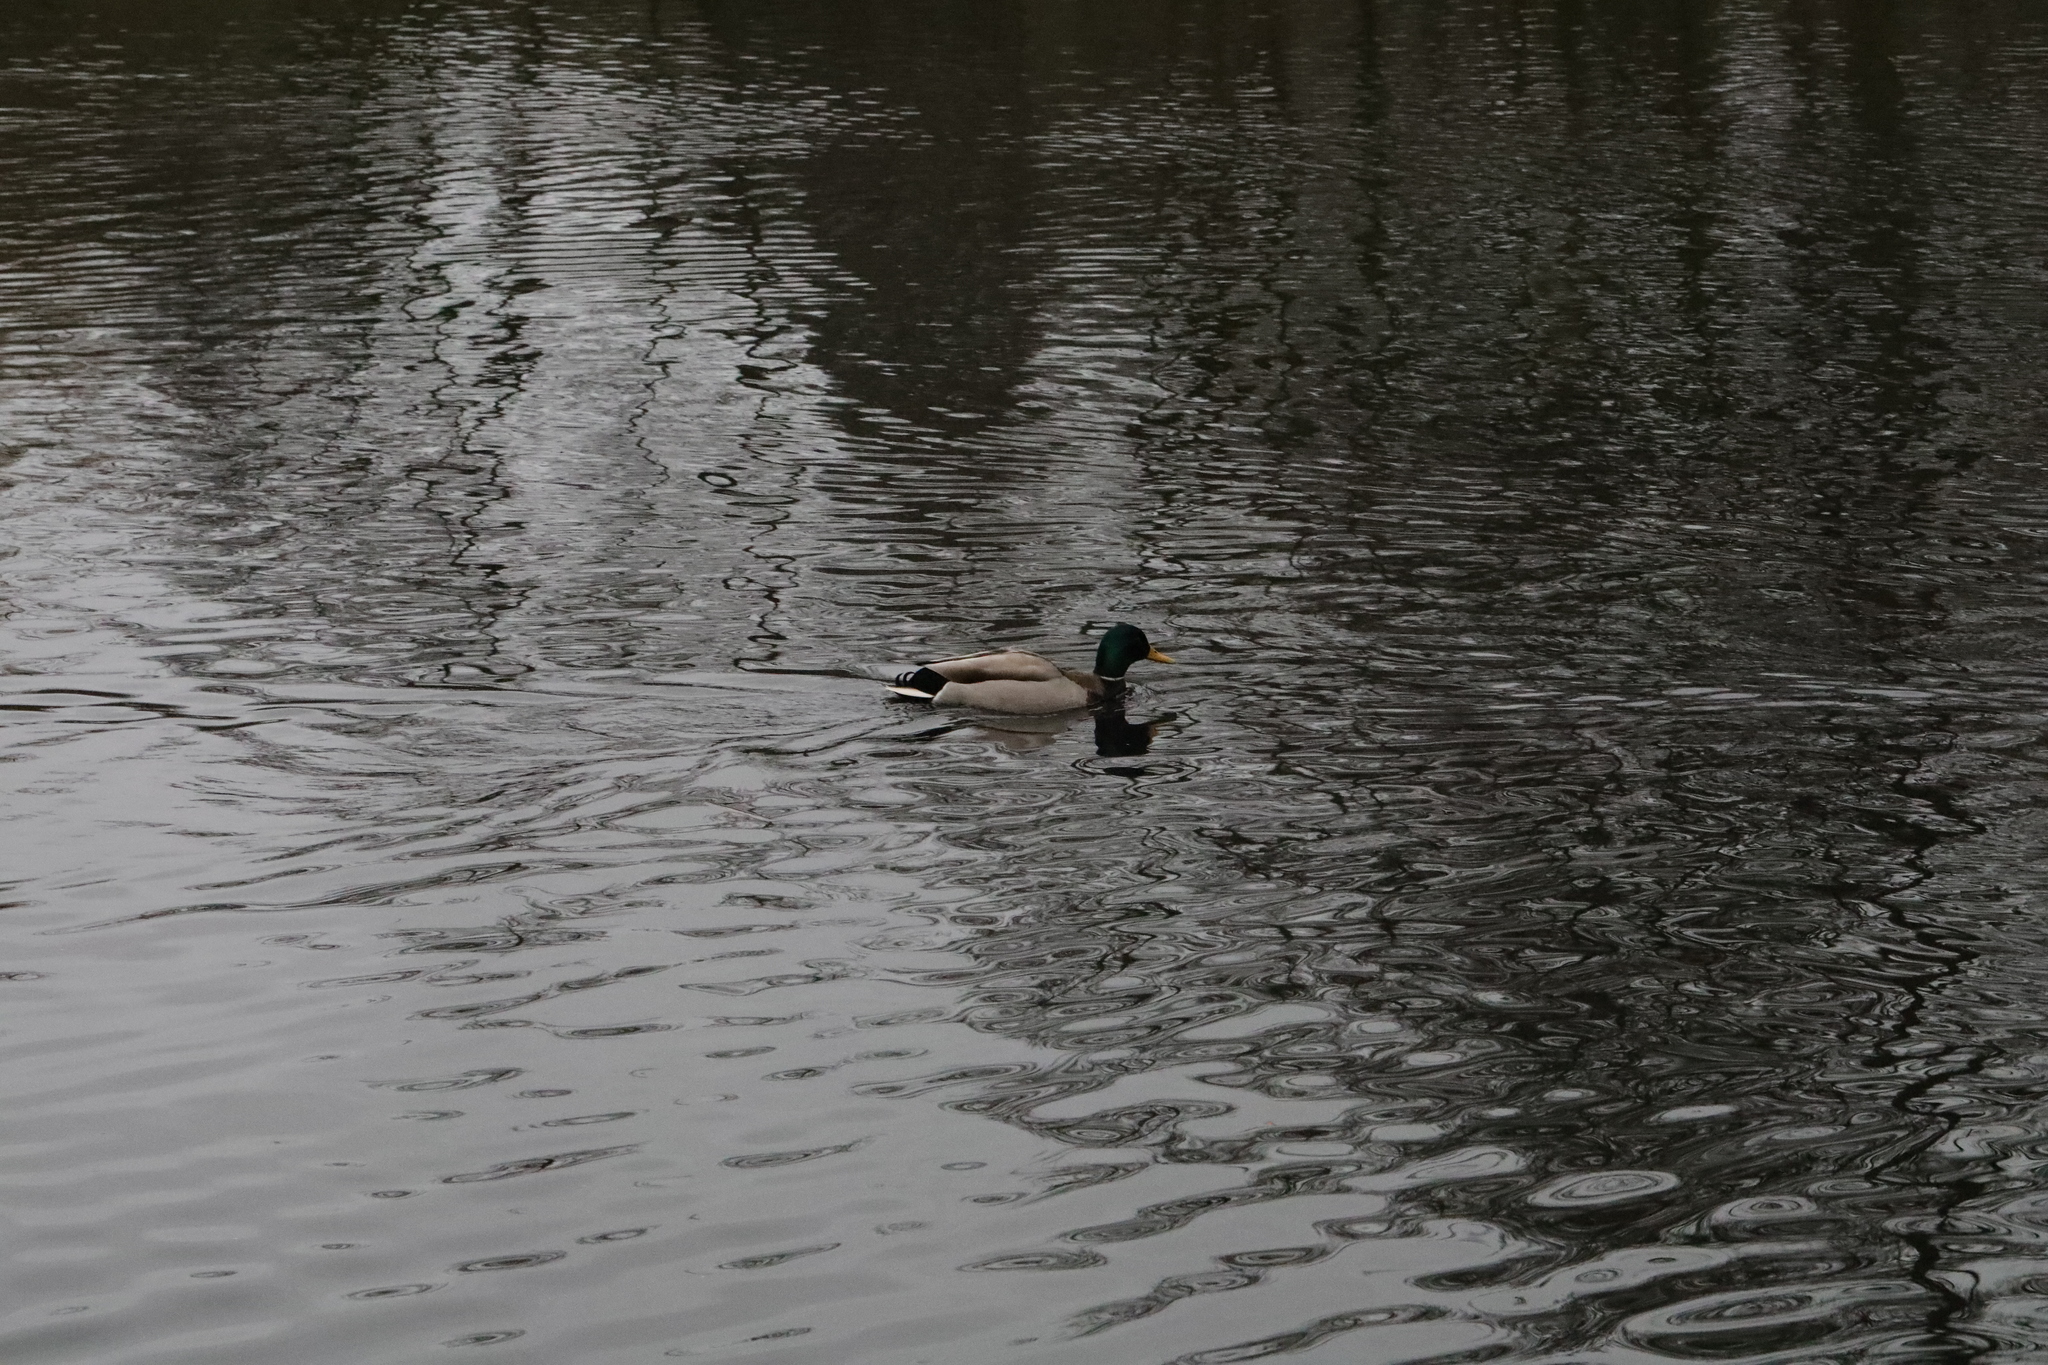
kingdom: Animalia
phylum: Chordata
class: Aves
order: Anseriformes
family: Anatidae
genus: Anas
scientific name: Anas platyrhynchos
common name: Mallard
